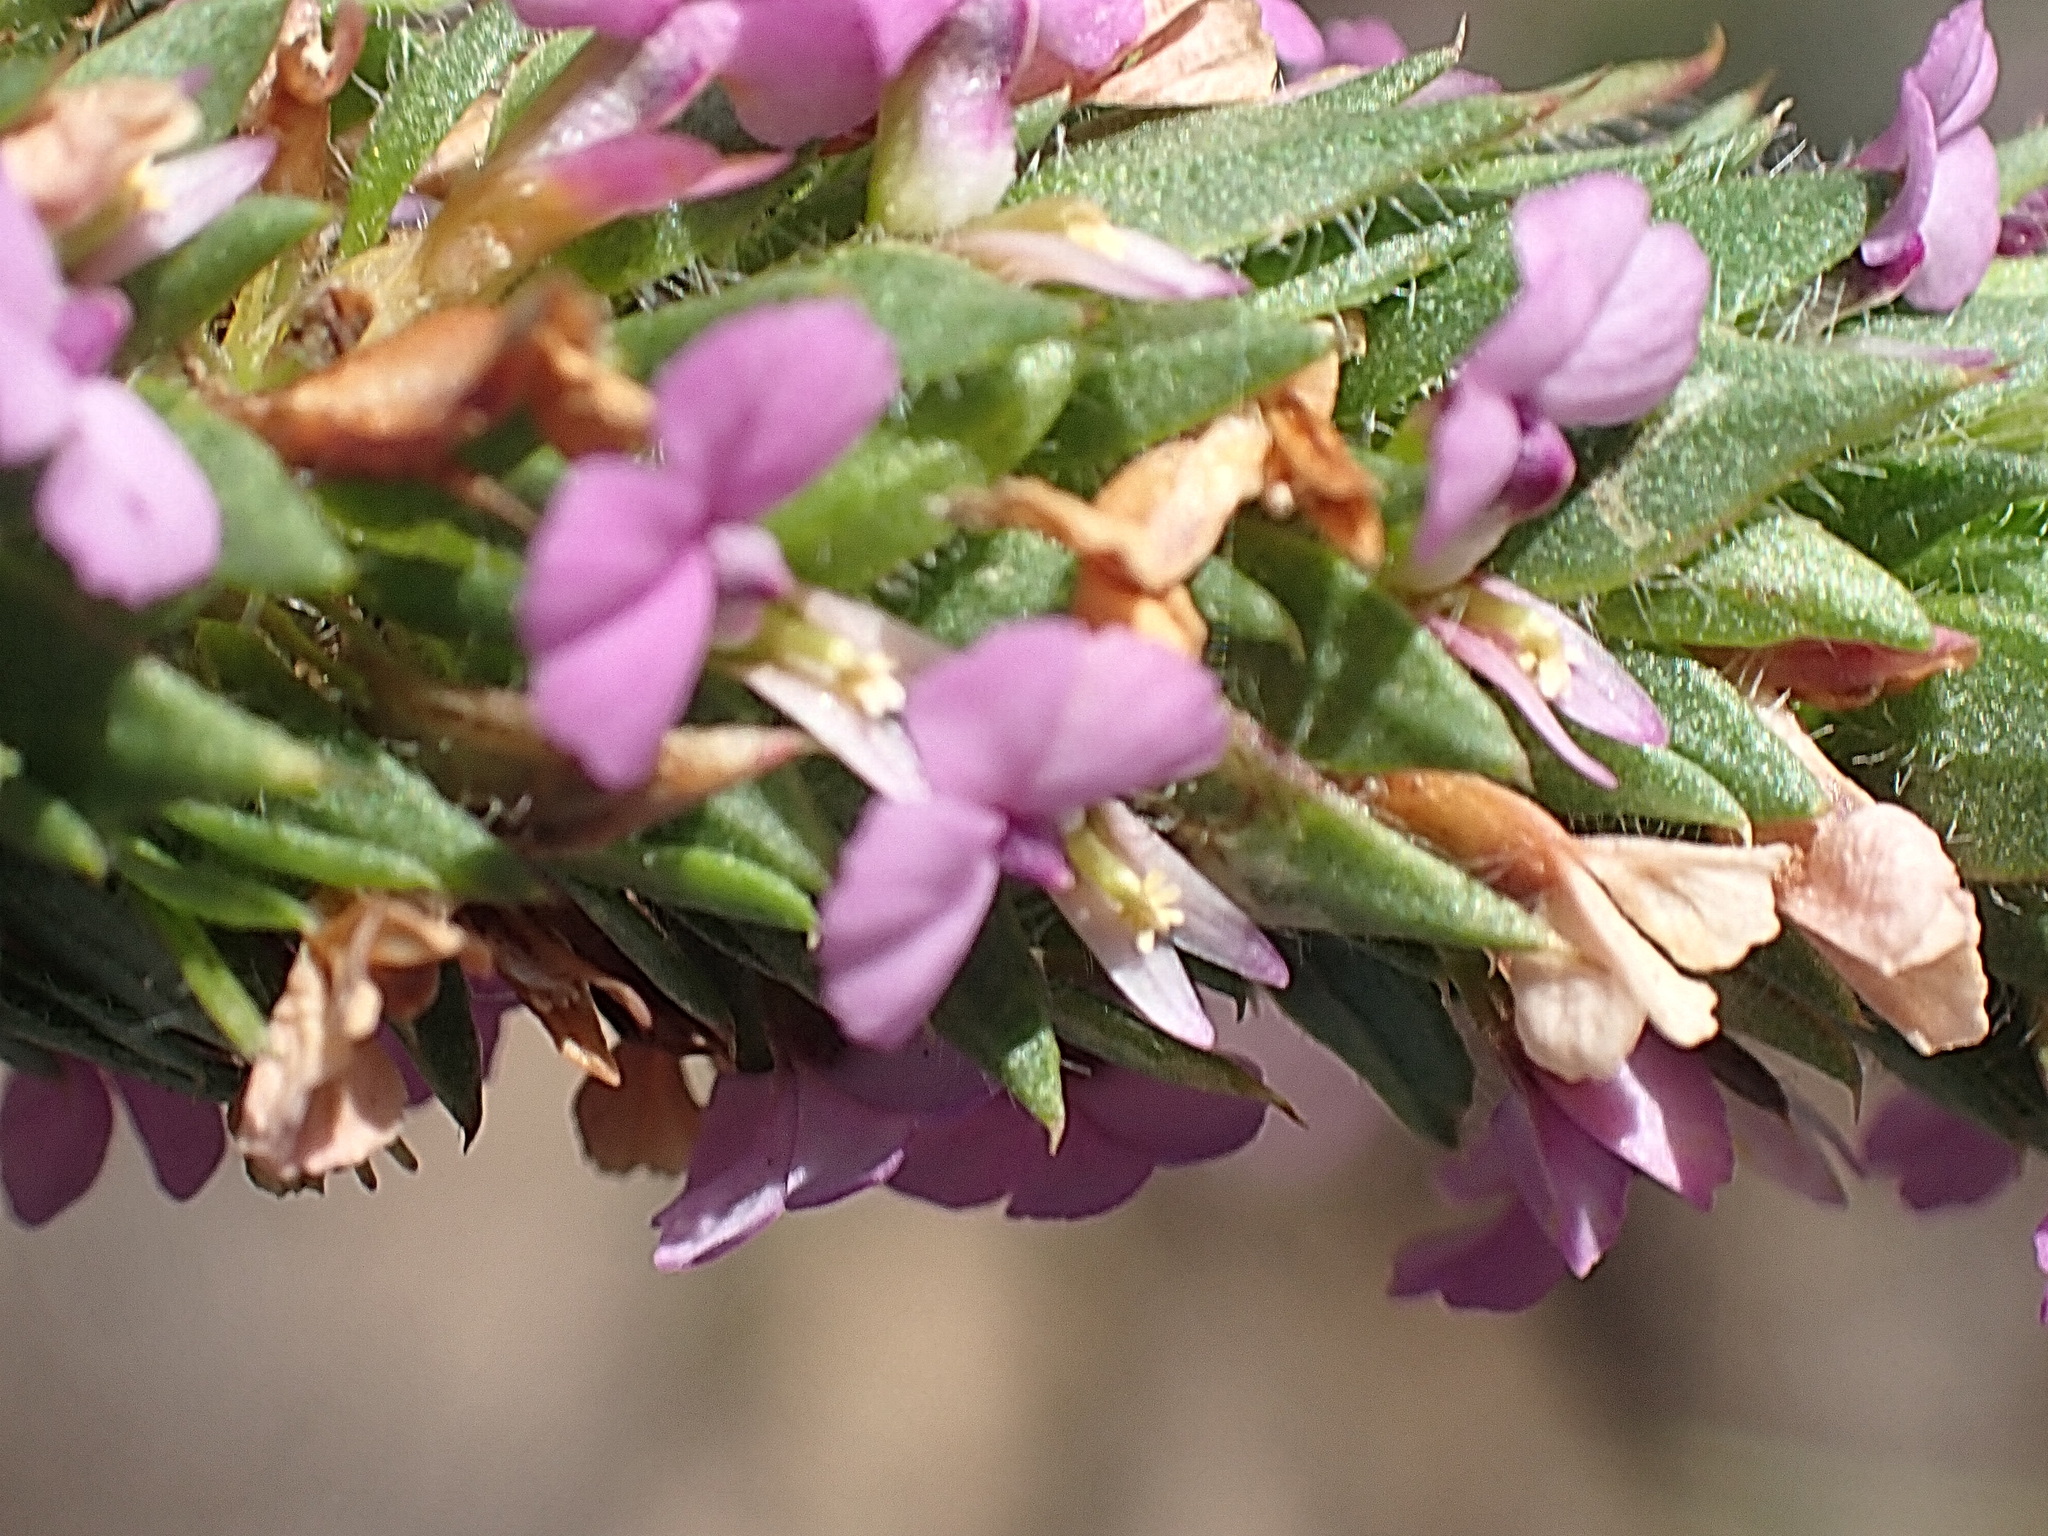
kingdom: Plantae
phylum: Tracheophyta
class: Magnoliopsida
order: Fabales
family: Polygalaceae
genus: Muraltia
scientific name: Muraltia squarrosa
